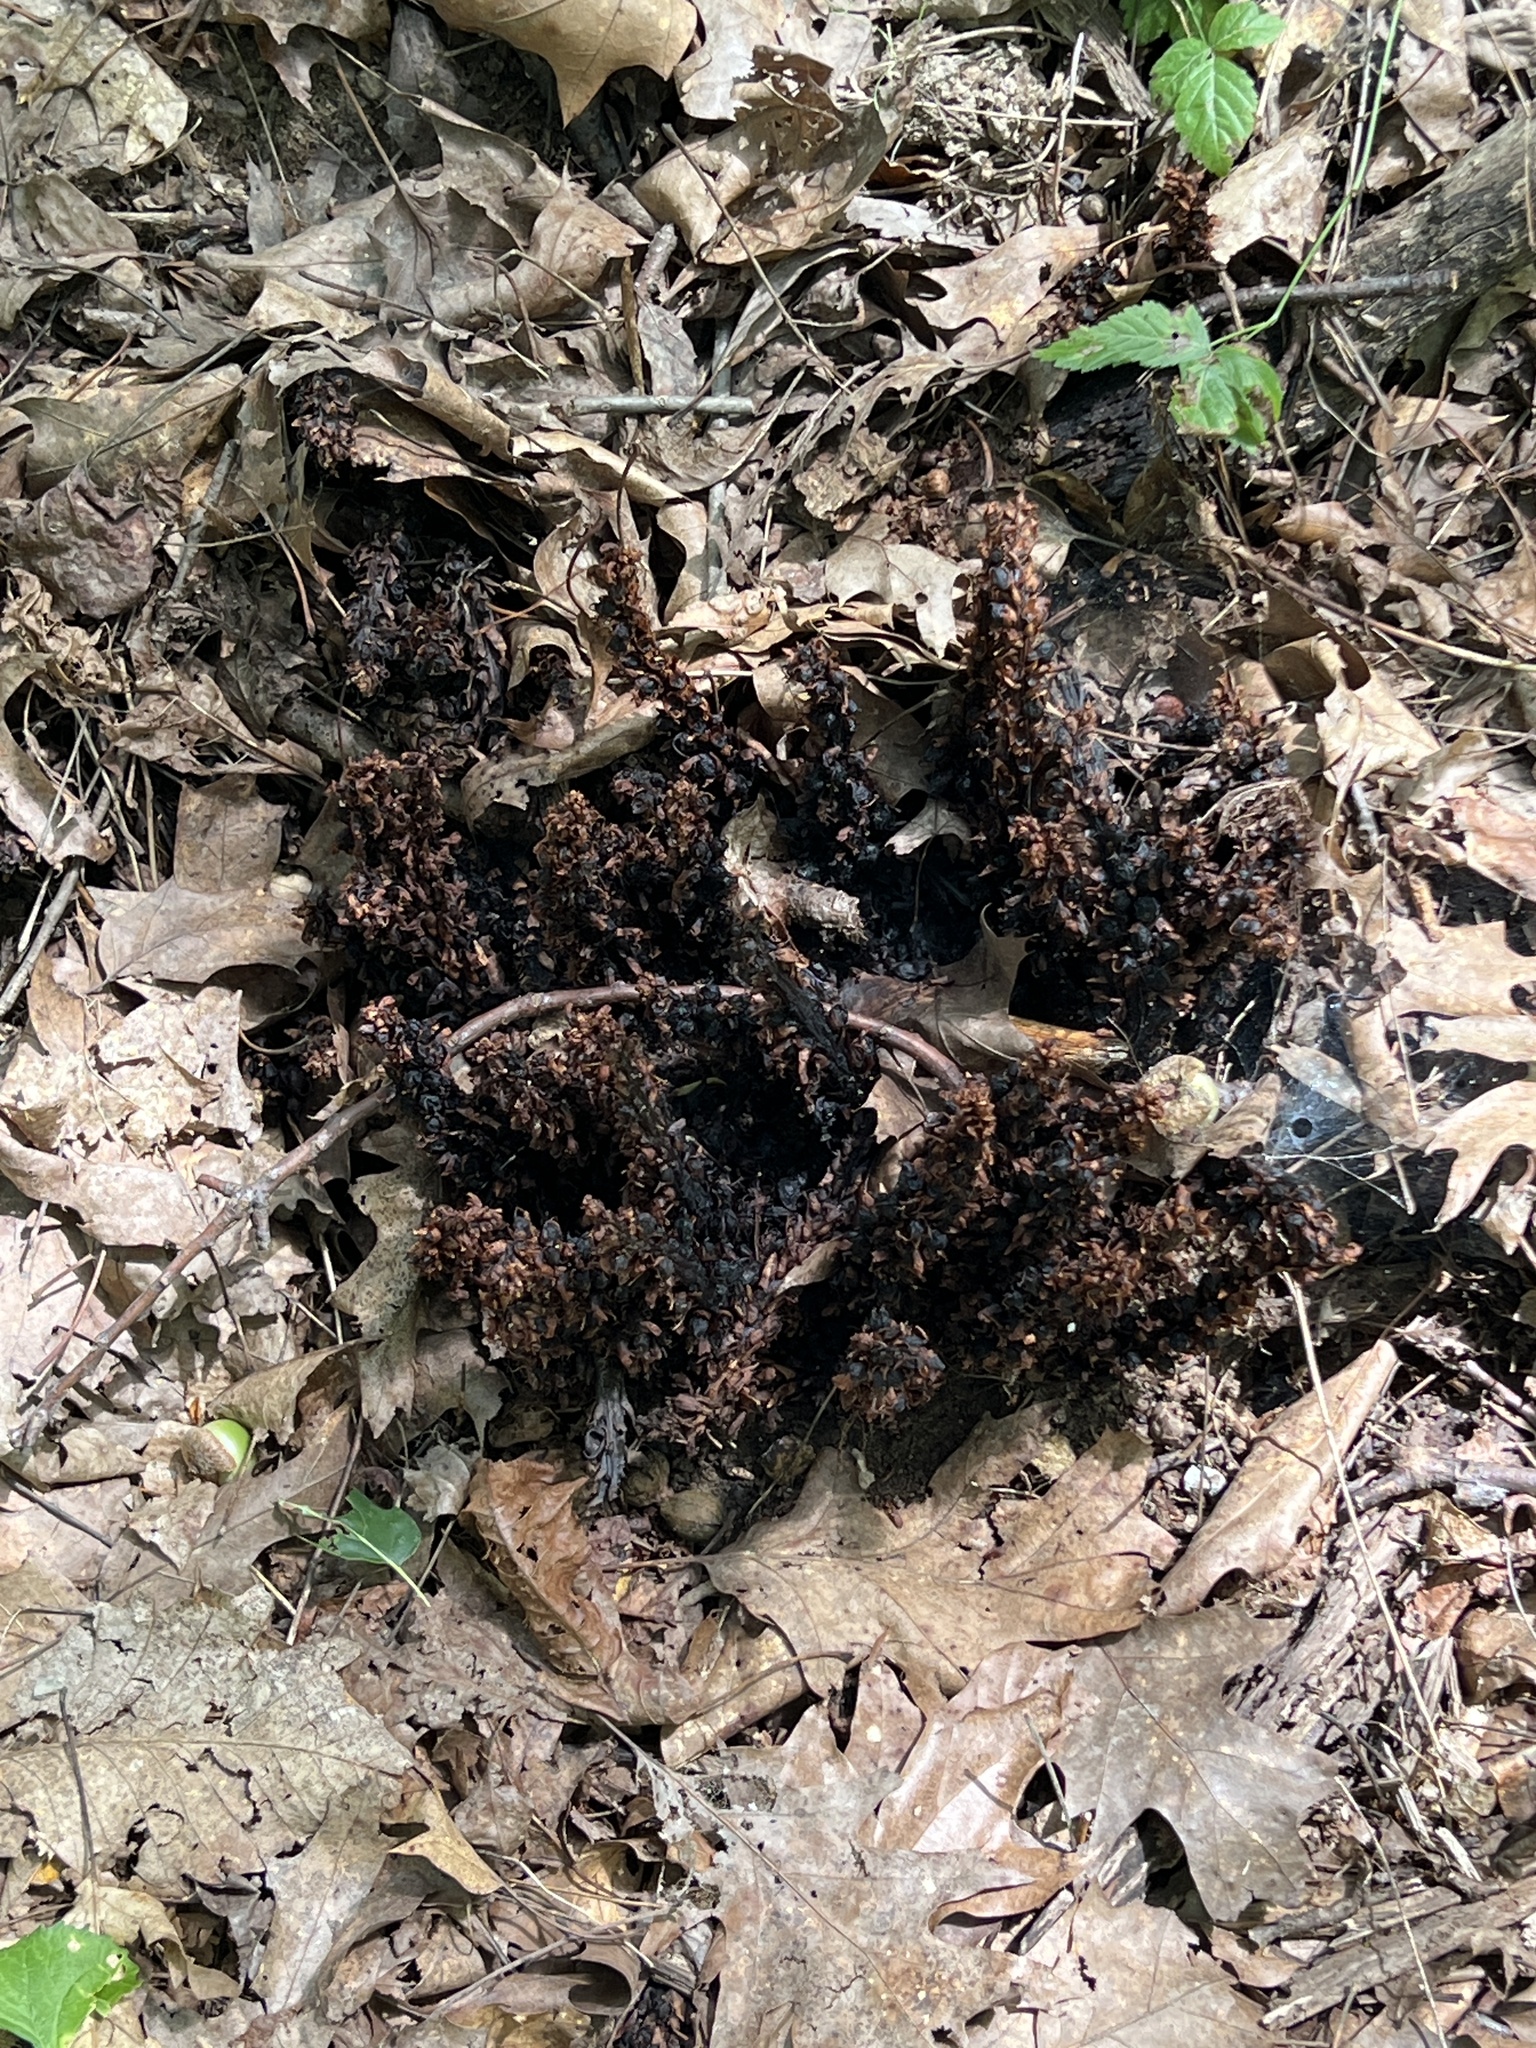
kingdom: Plantae
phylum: Tracheophyta
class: Magnoliopsida
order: Lamiales
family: Orobanchaceae
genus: Conopholis
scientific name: Conopholis americana
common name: American cancer-root
